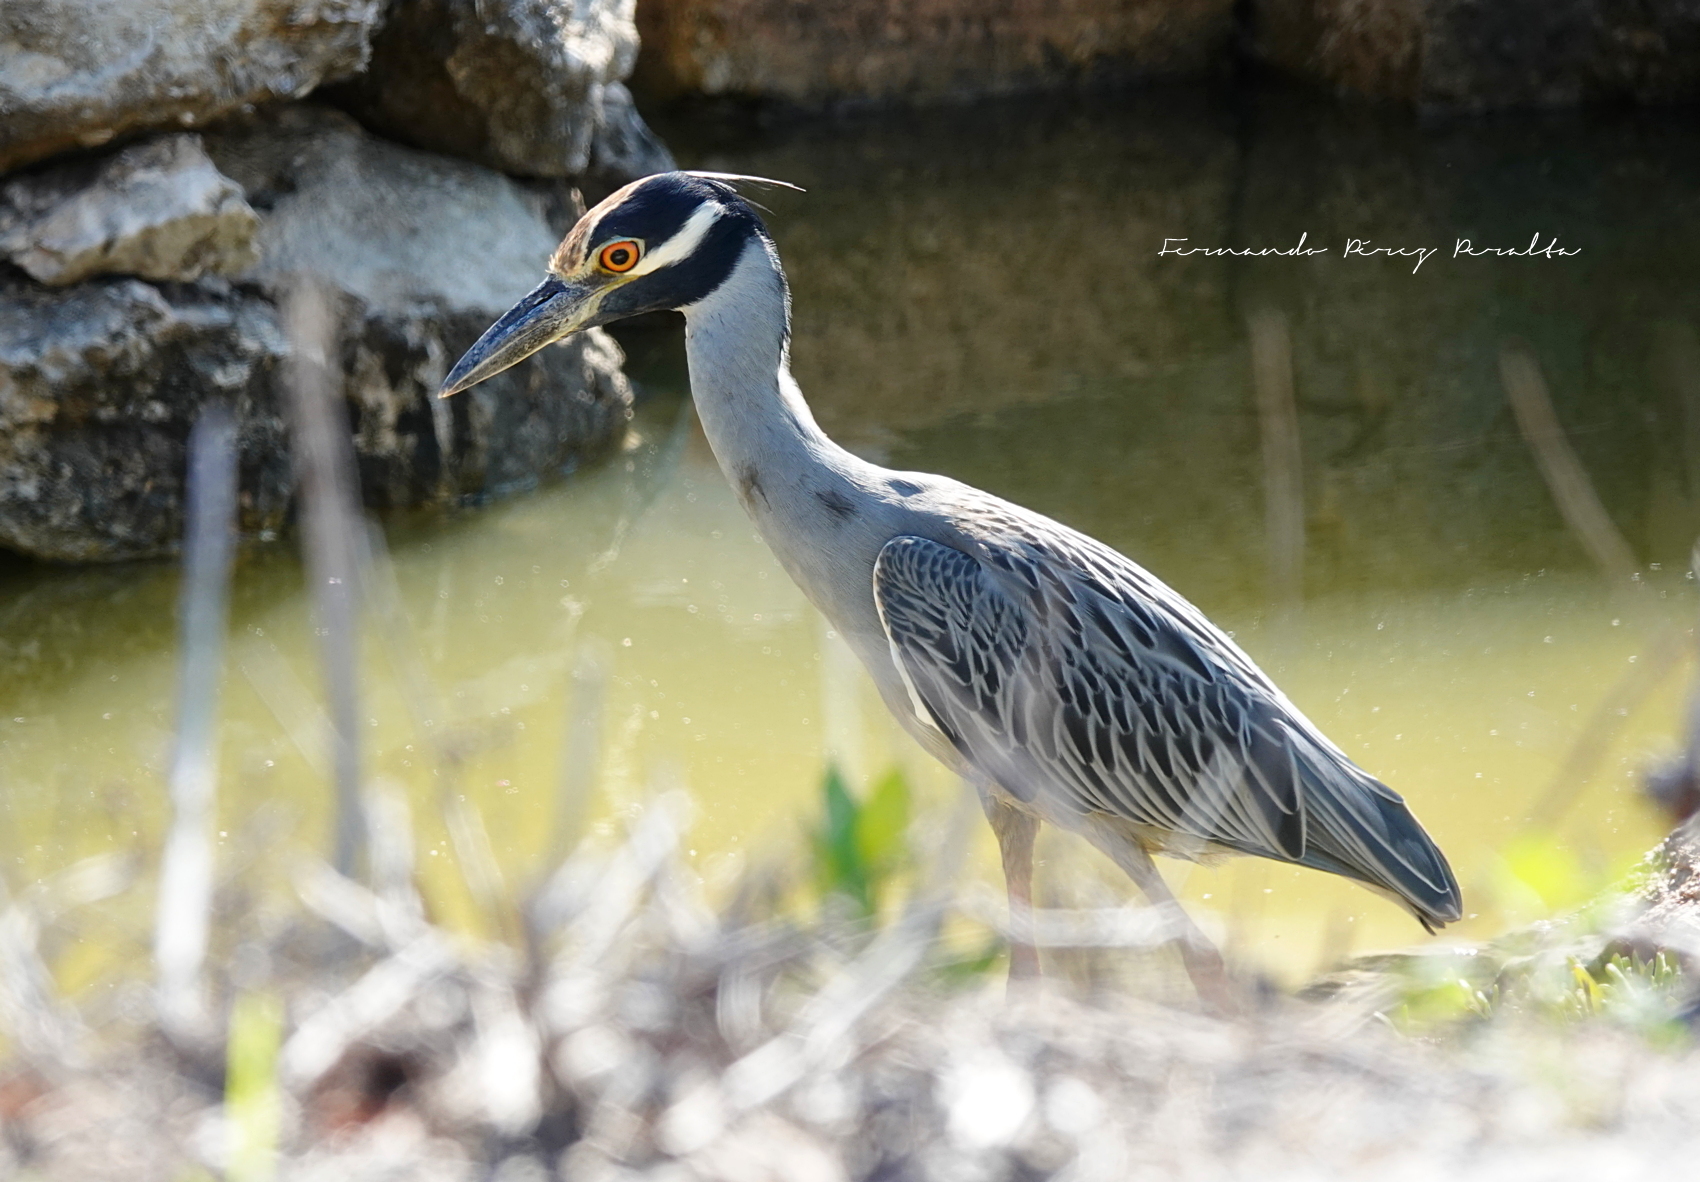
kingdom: Animalia
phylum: Chordata
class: Aves
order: Pelecaniformes
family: Ardeidae
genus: Nyctanassa
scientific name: Nyctanassa violacea
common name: Yellow-crowned night heron
